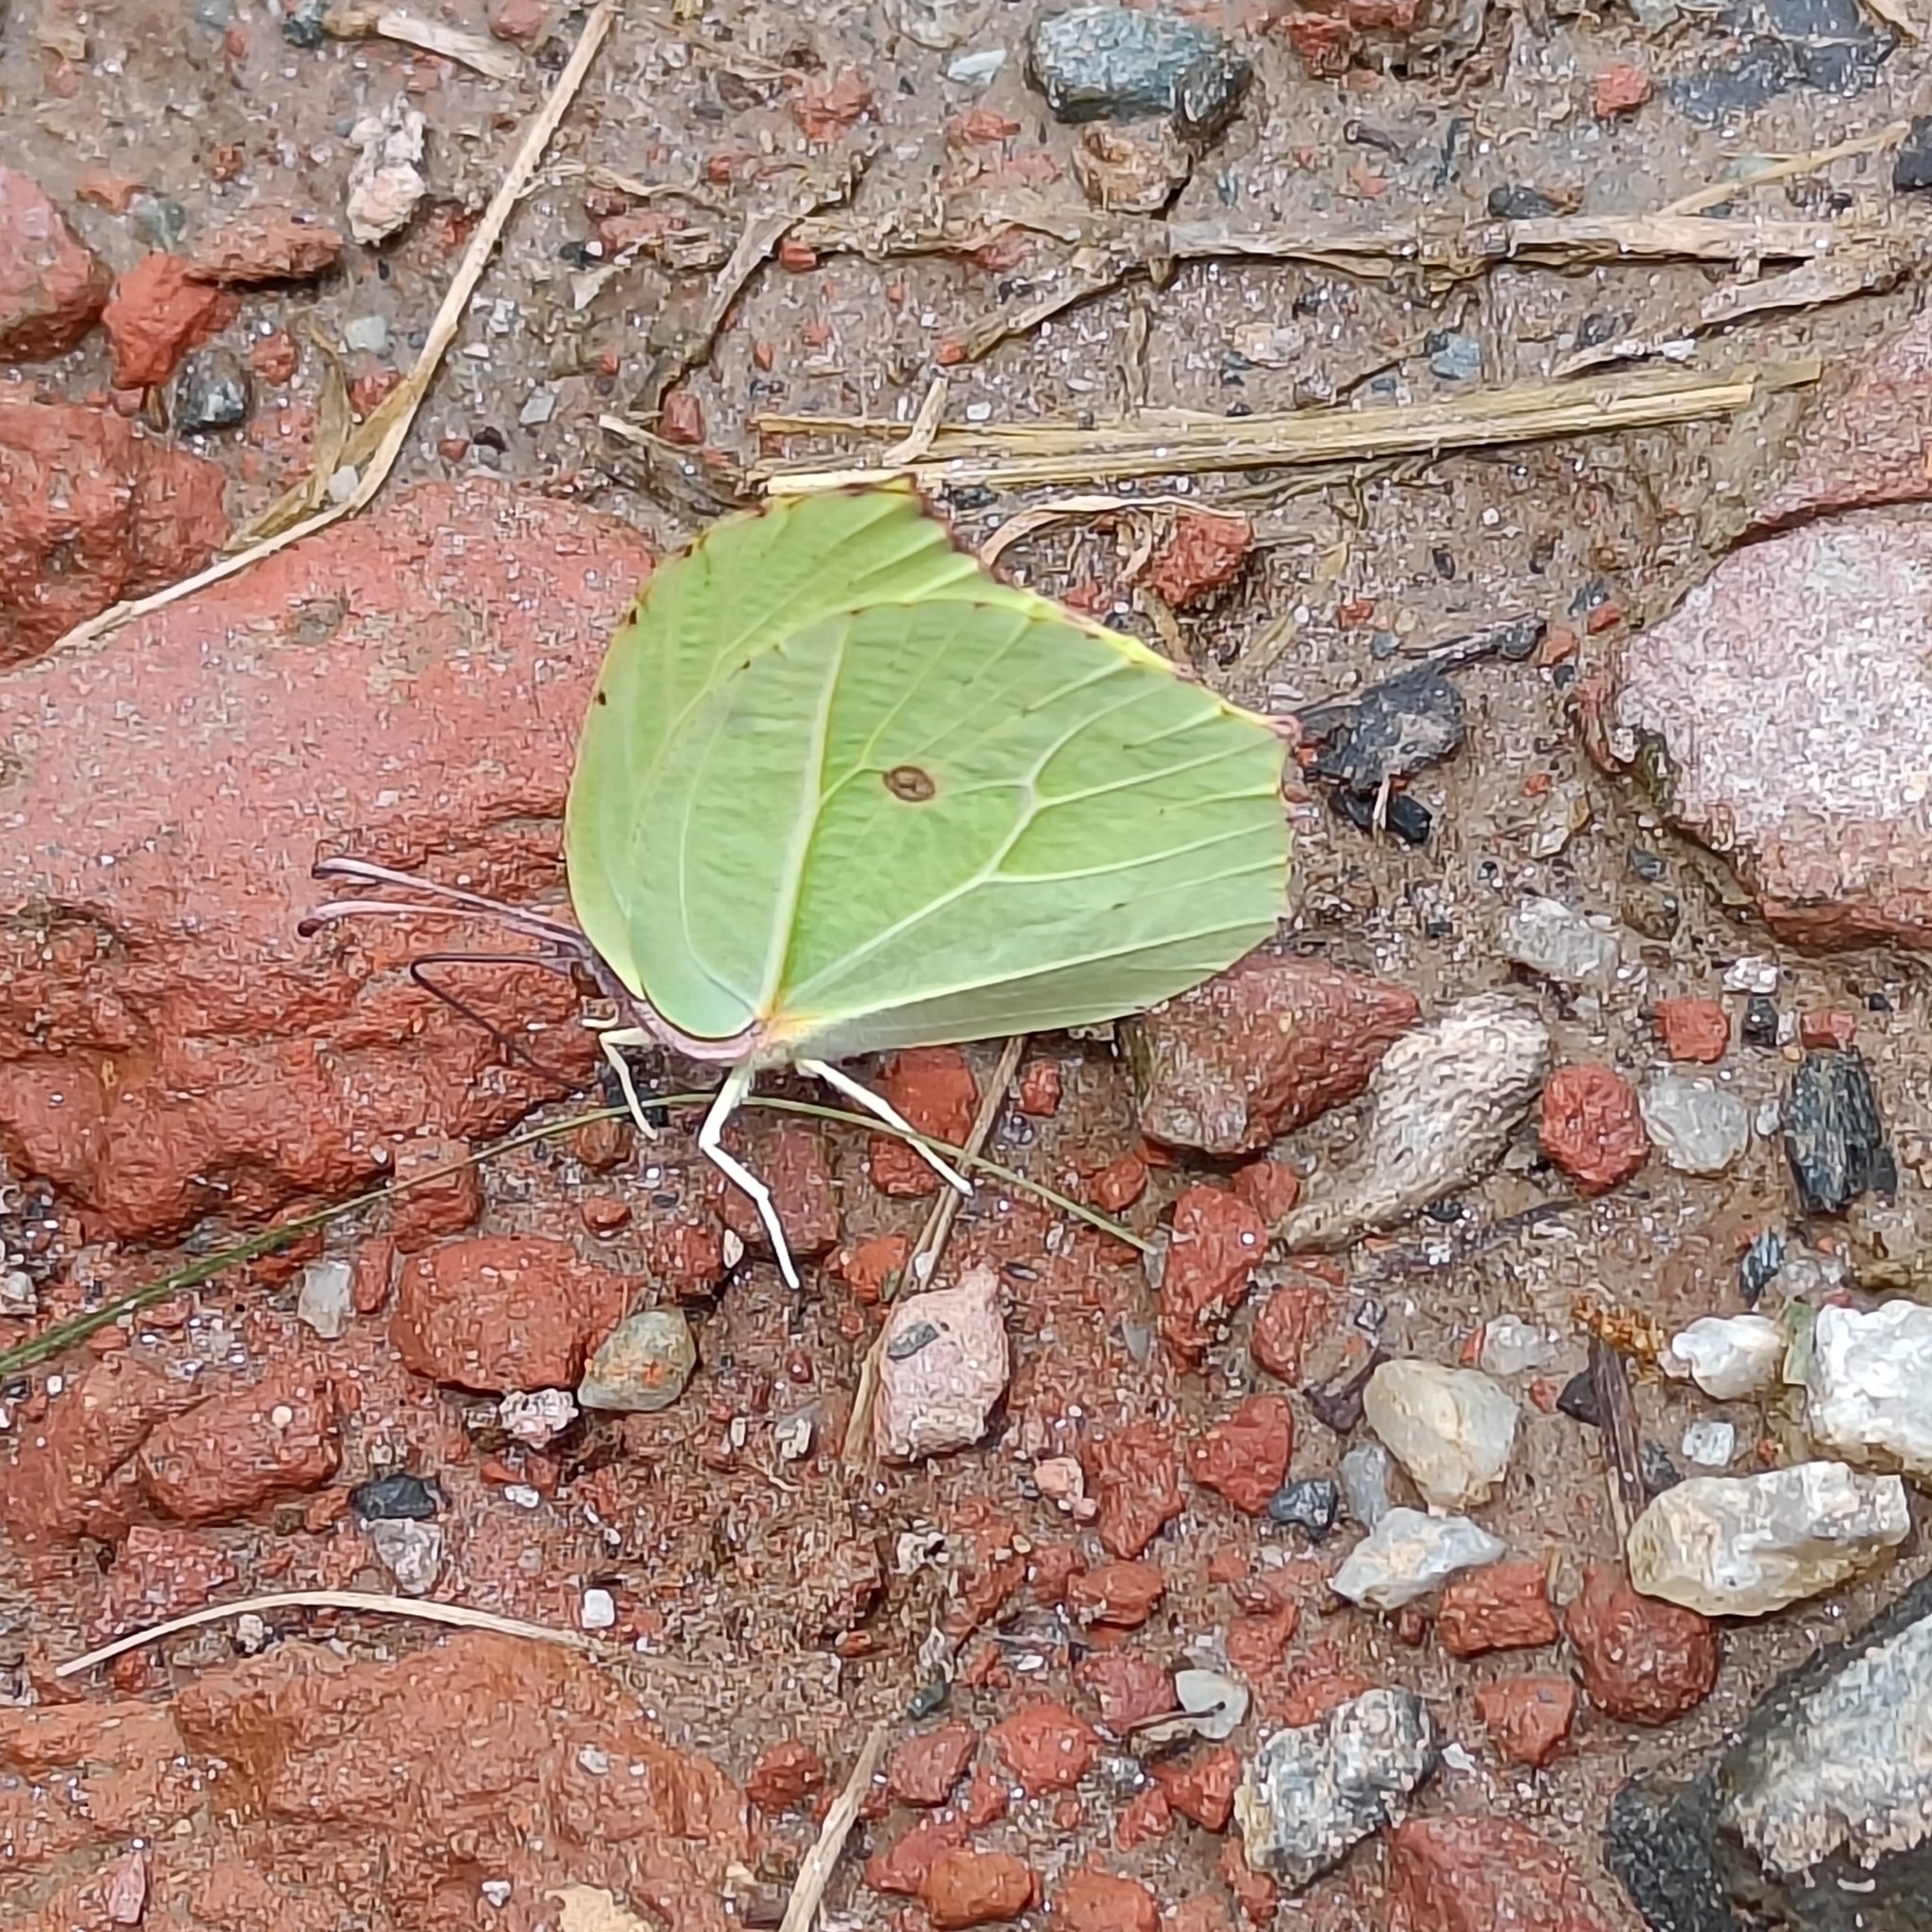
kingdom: Animalia
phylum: Arthropoda
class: Insecta
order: Lepidoptera
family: Pieridae
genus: Gonepteryx
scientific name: Gonepteryx
